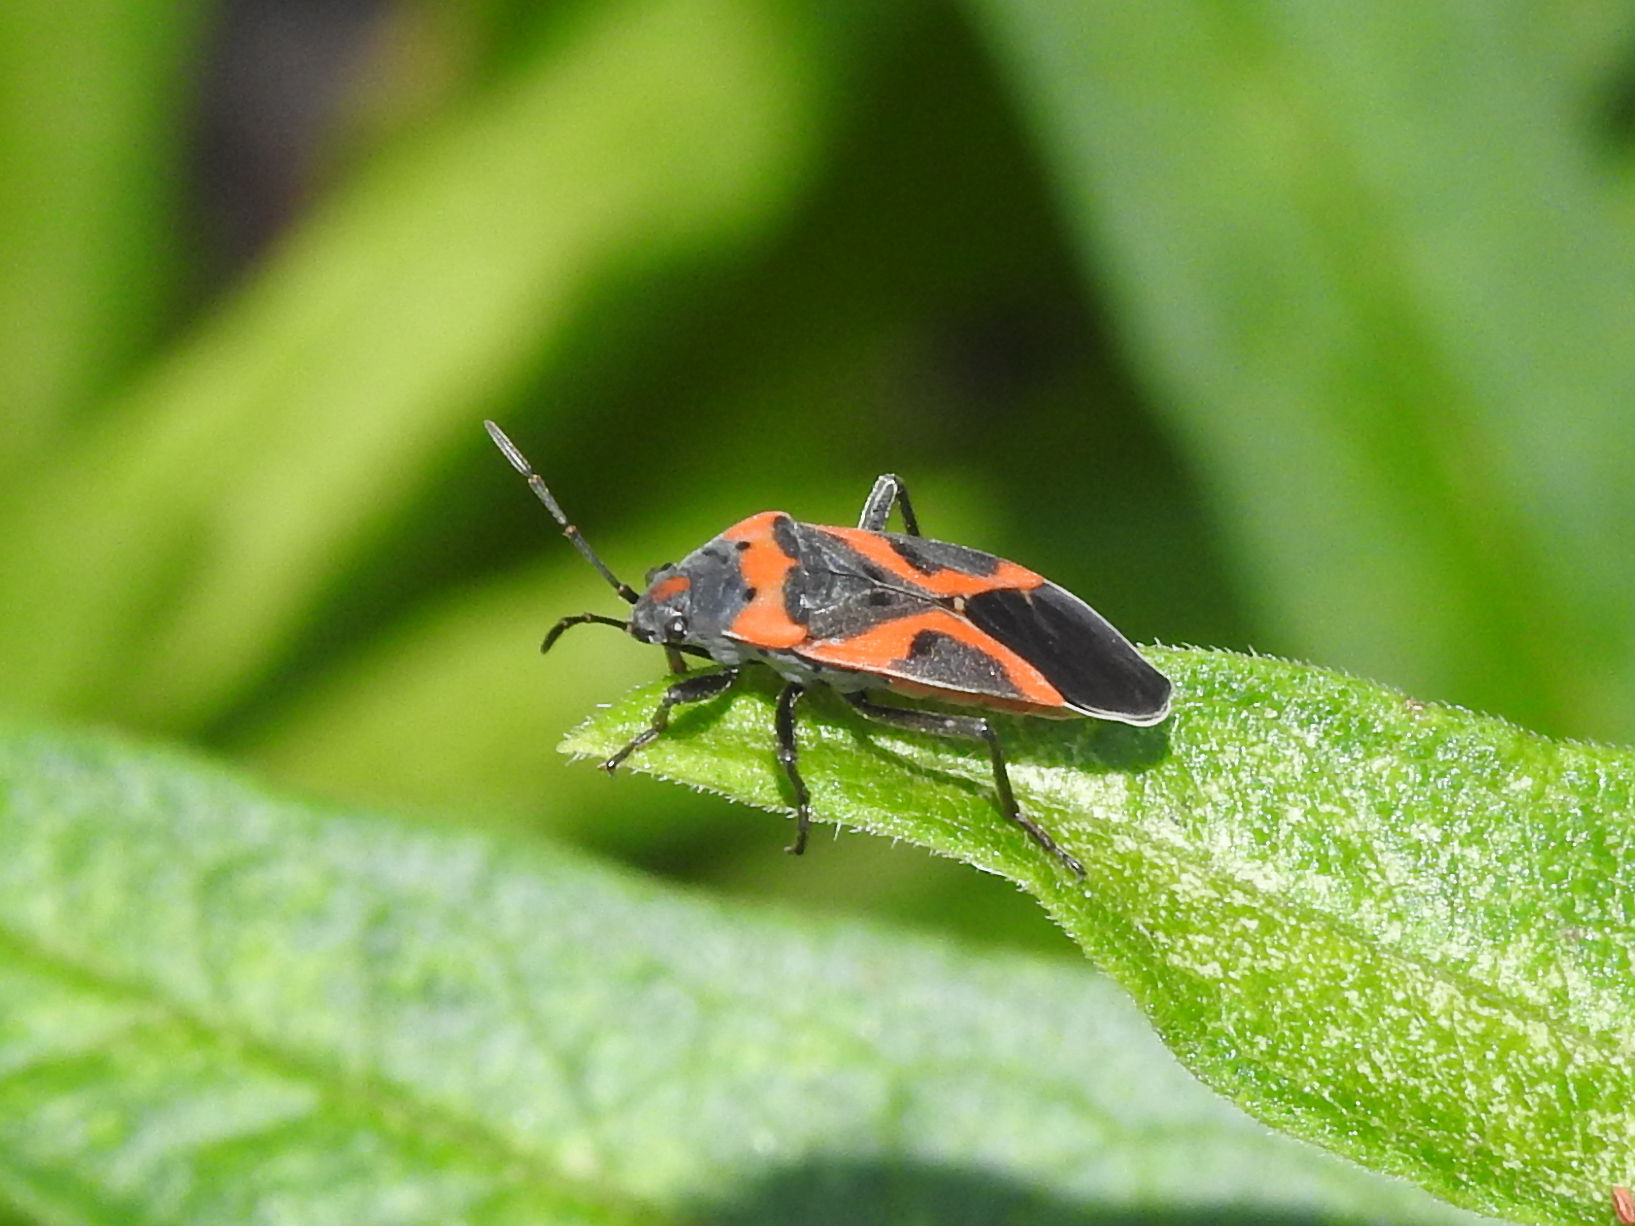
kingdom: Animalia
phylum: Arthropoda
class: Insecta
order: Hemiptera
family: Lygaeidae
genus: Lygaeus
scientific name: Lygaeus kalmii
